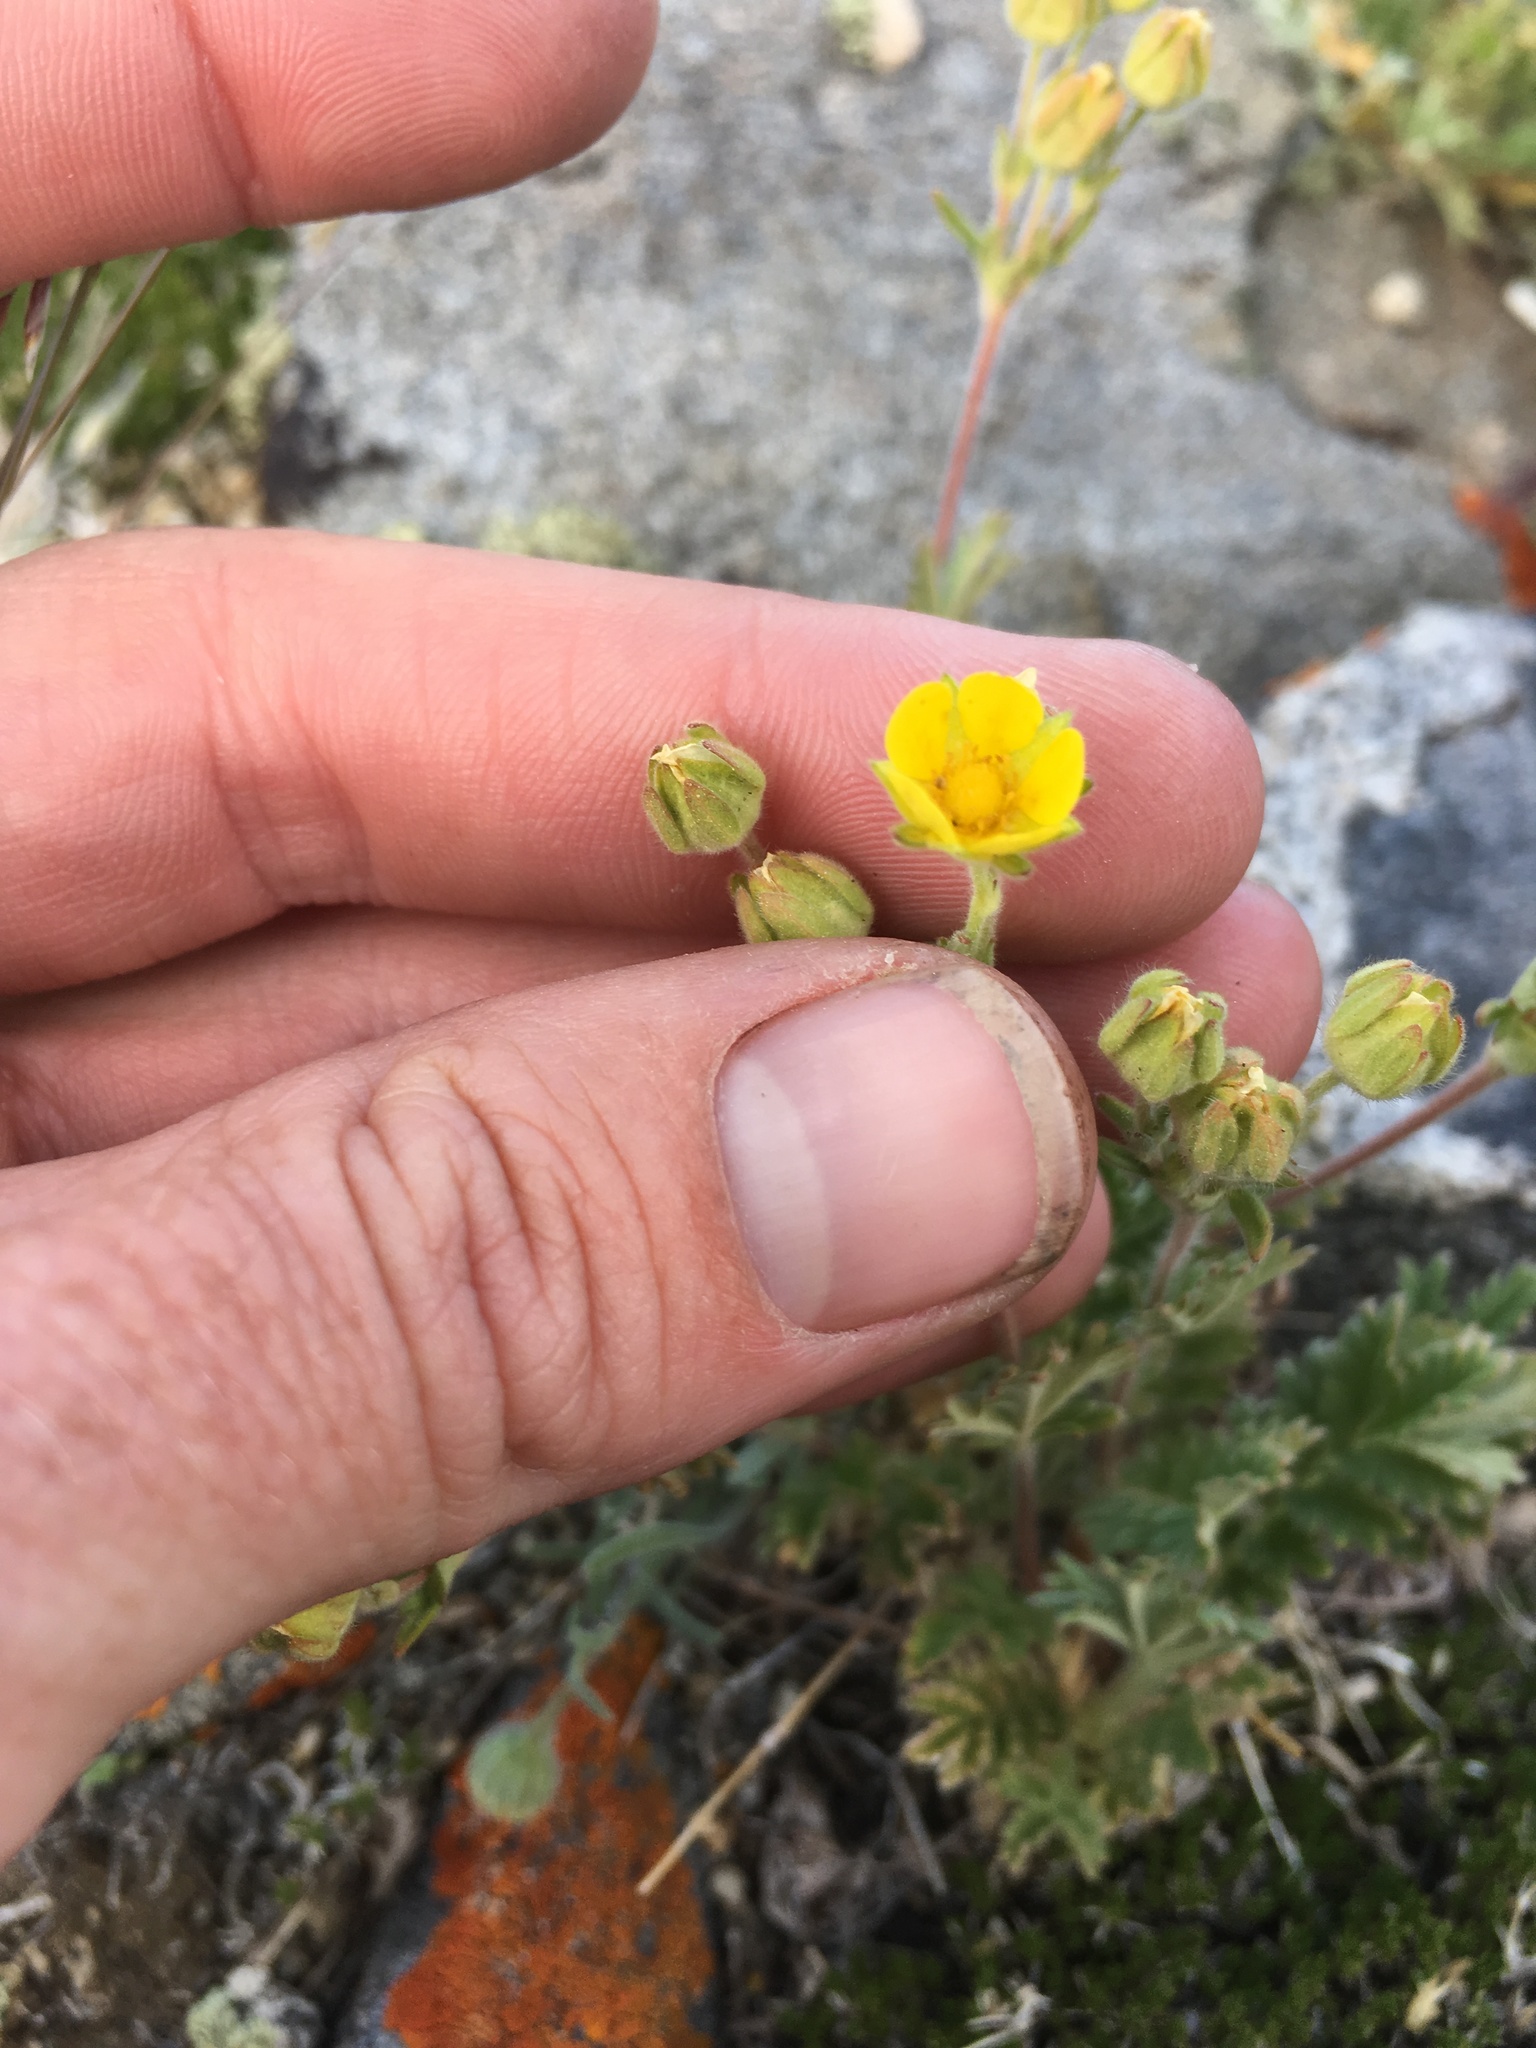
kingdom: Plantae
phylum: Tracheophyta
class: Magnoliopsida
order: Rosales
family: Rosaceae
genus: Potentilla
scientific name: Potentilla pensylvanica
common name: Pennsylvania cinquefoil
